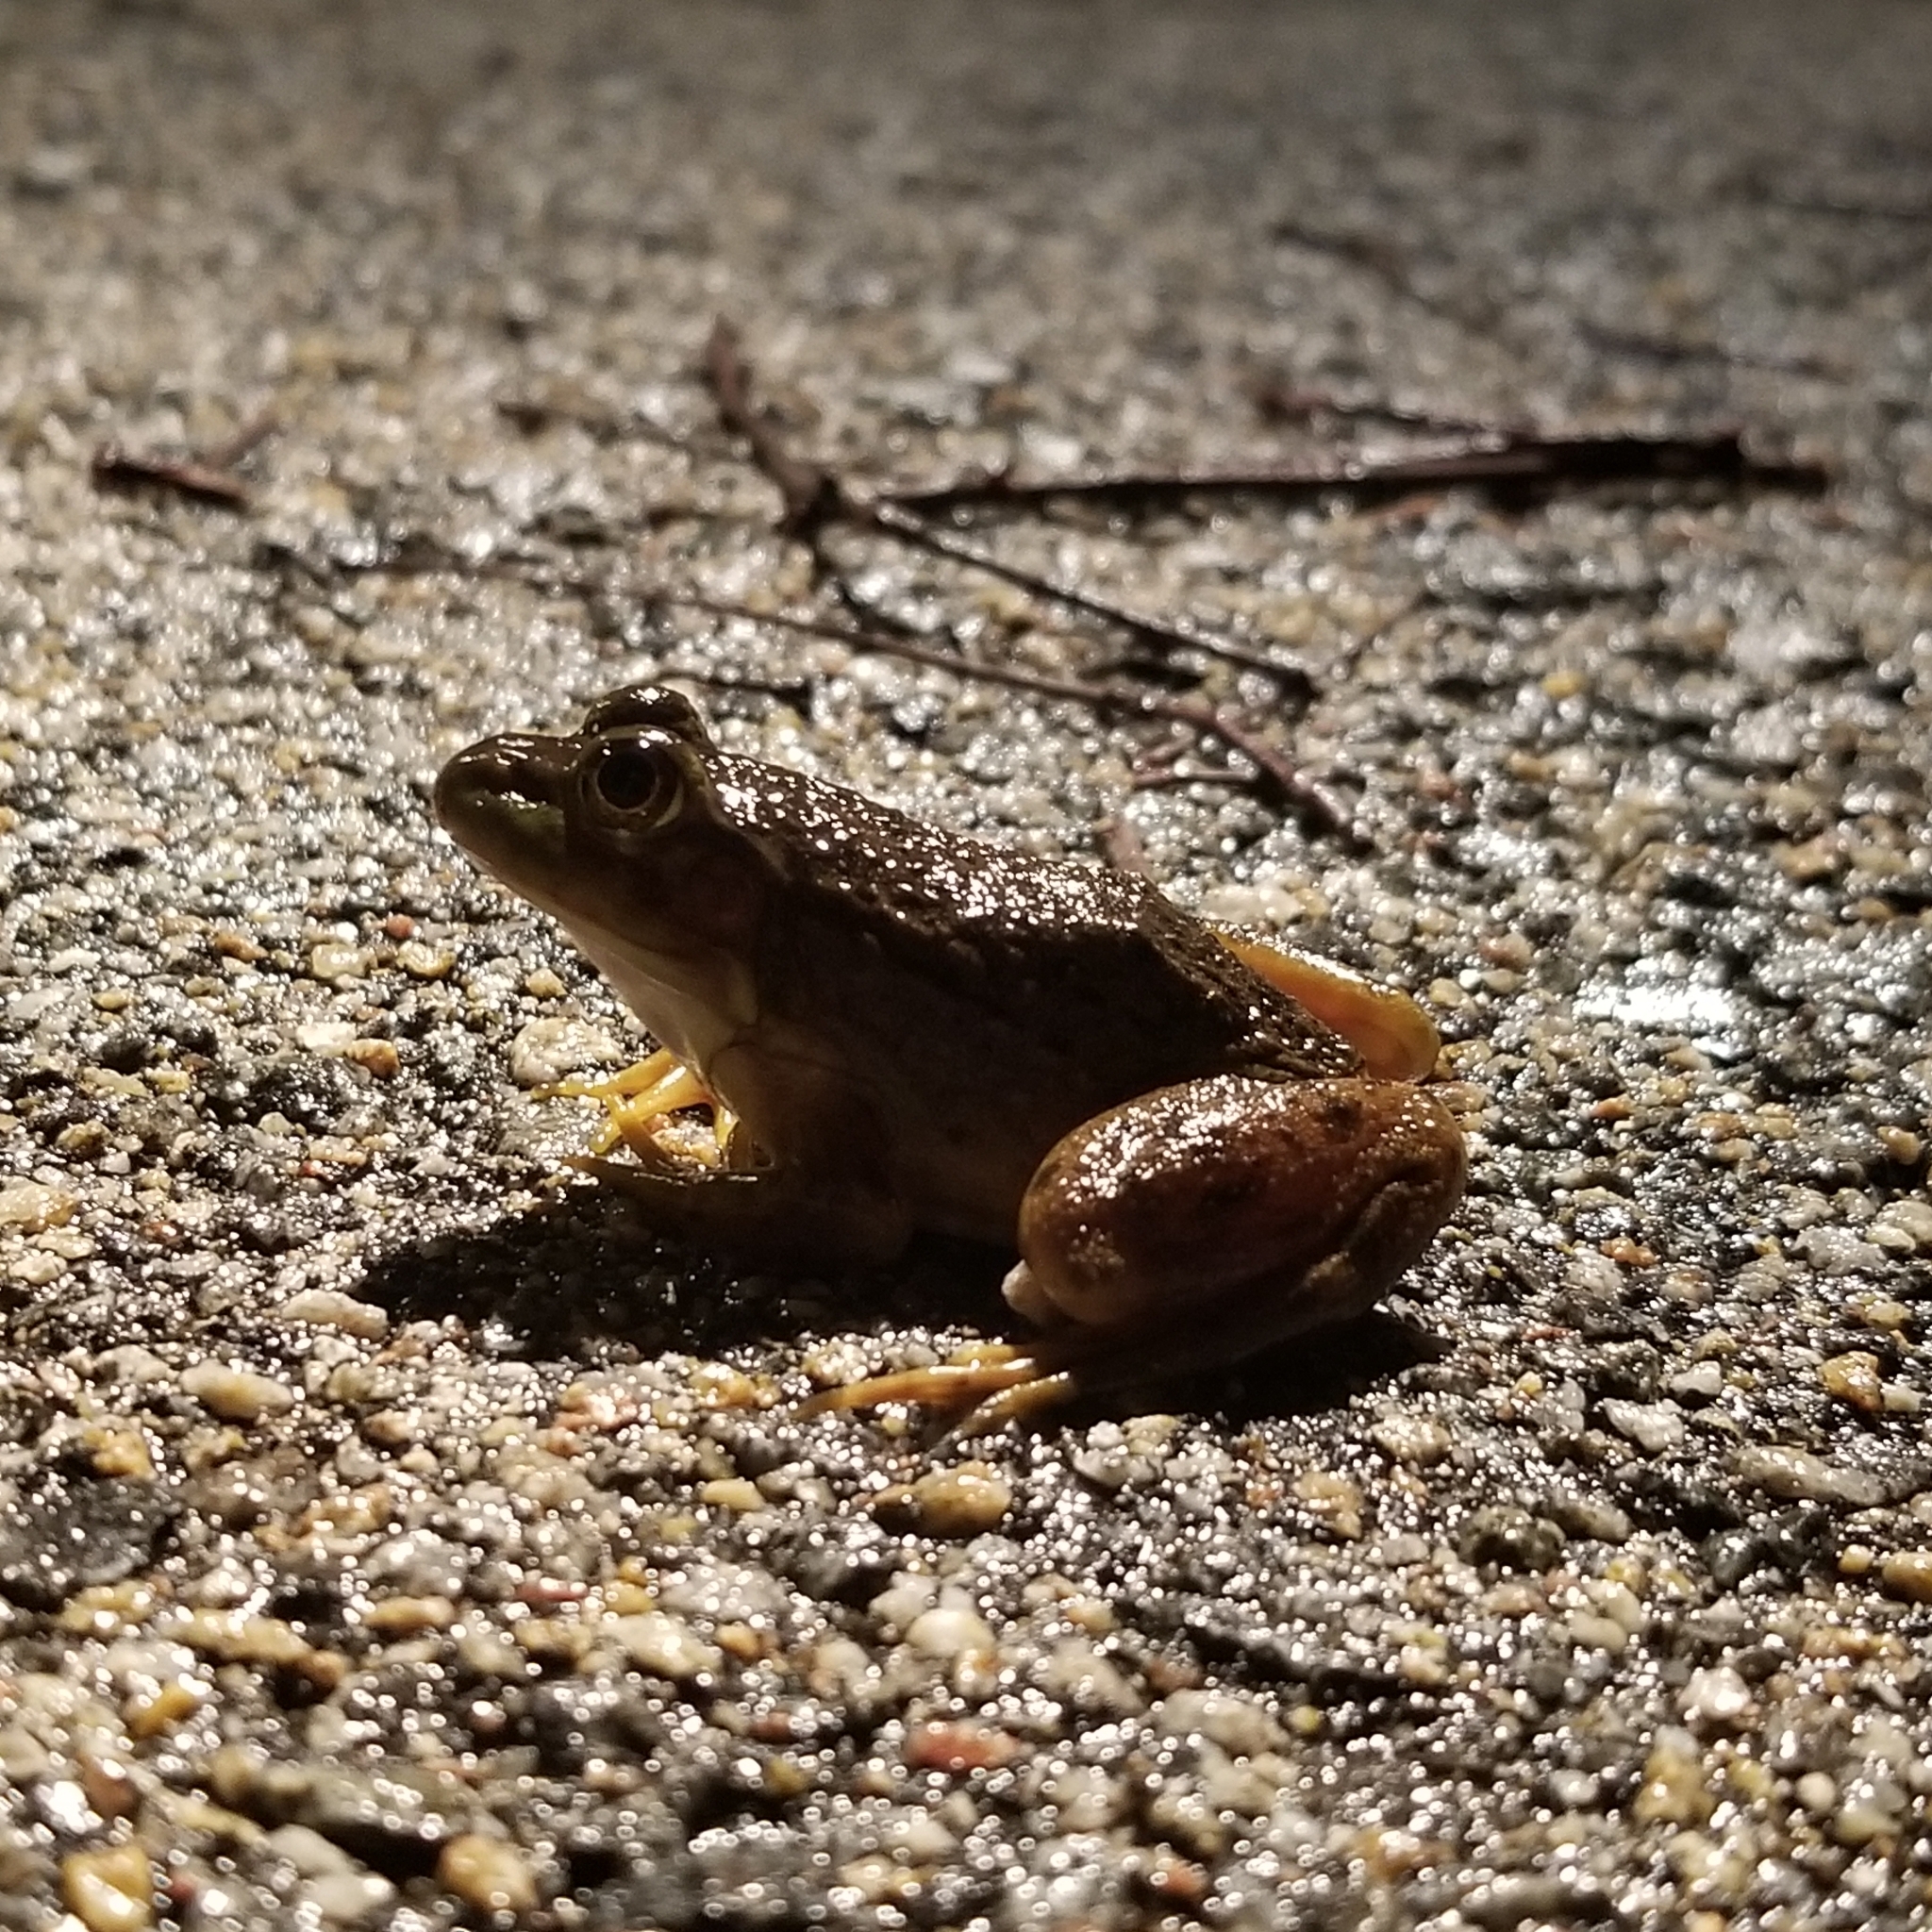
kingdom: Animalia
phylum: Chordata
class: Amphibia
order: Anura
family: Ranidae
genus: Lithobates
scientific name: Lithobates catesbeianus
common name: American bullfrog
